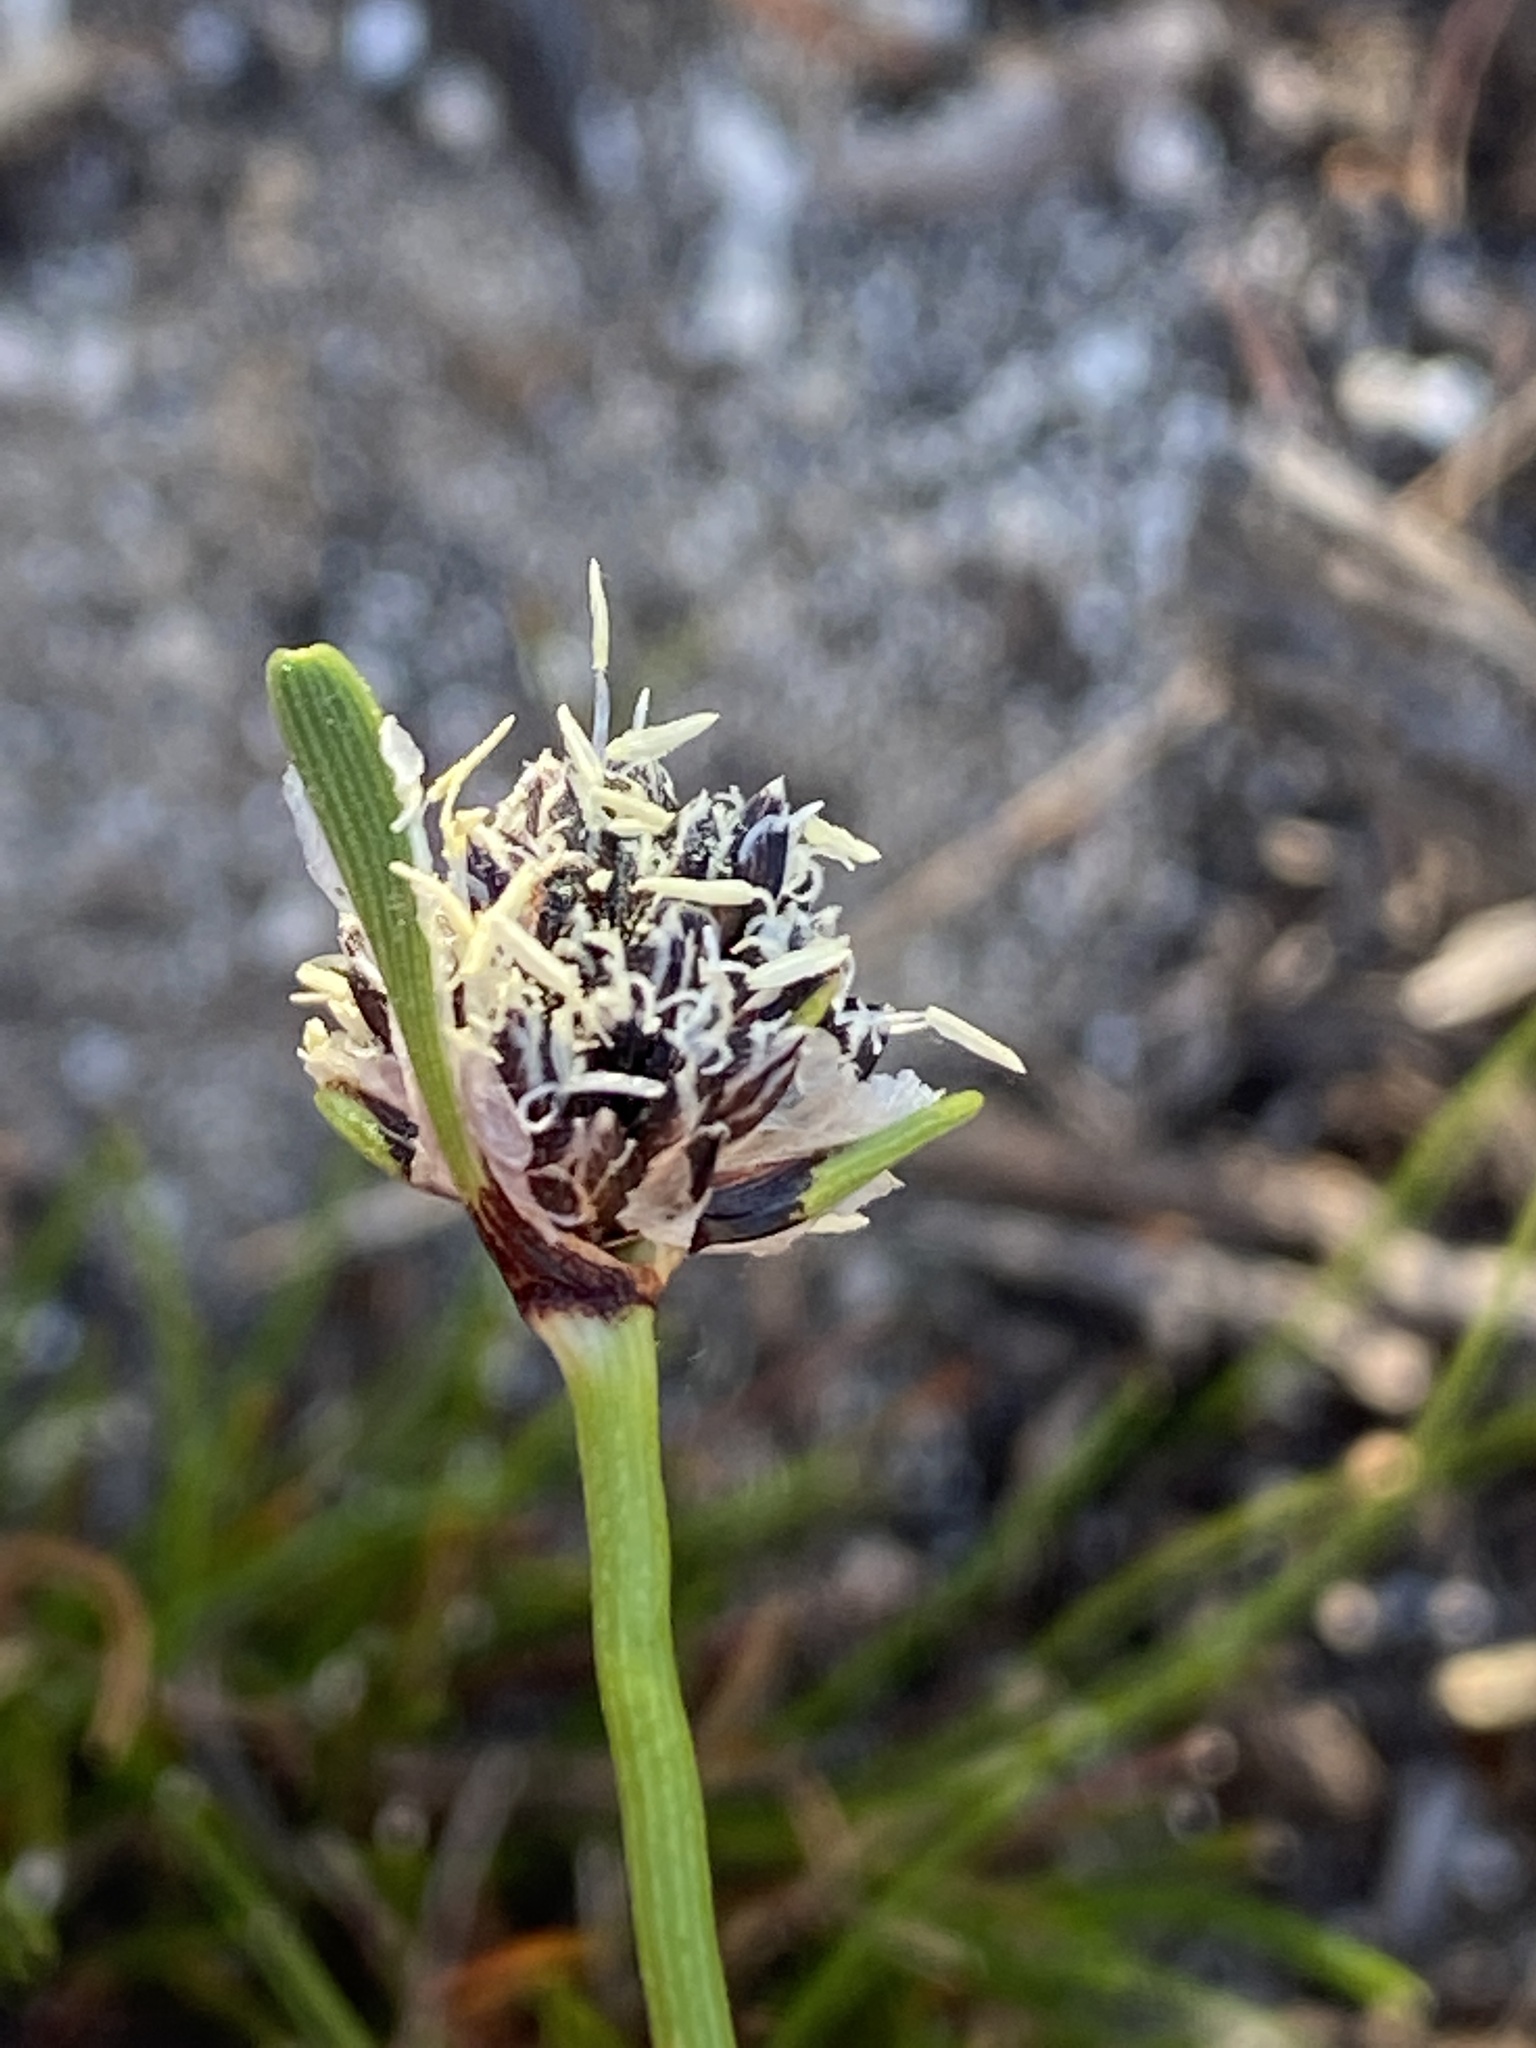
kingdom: Plantae
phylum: Tracheophyta
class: Liliopsida
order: Poales
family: Cyperaceae
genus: Ficinia
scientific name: Ficinia truncata
